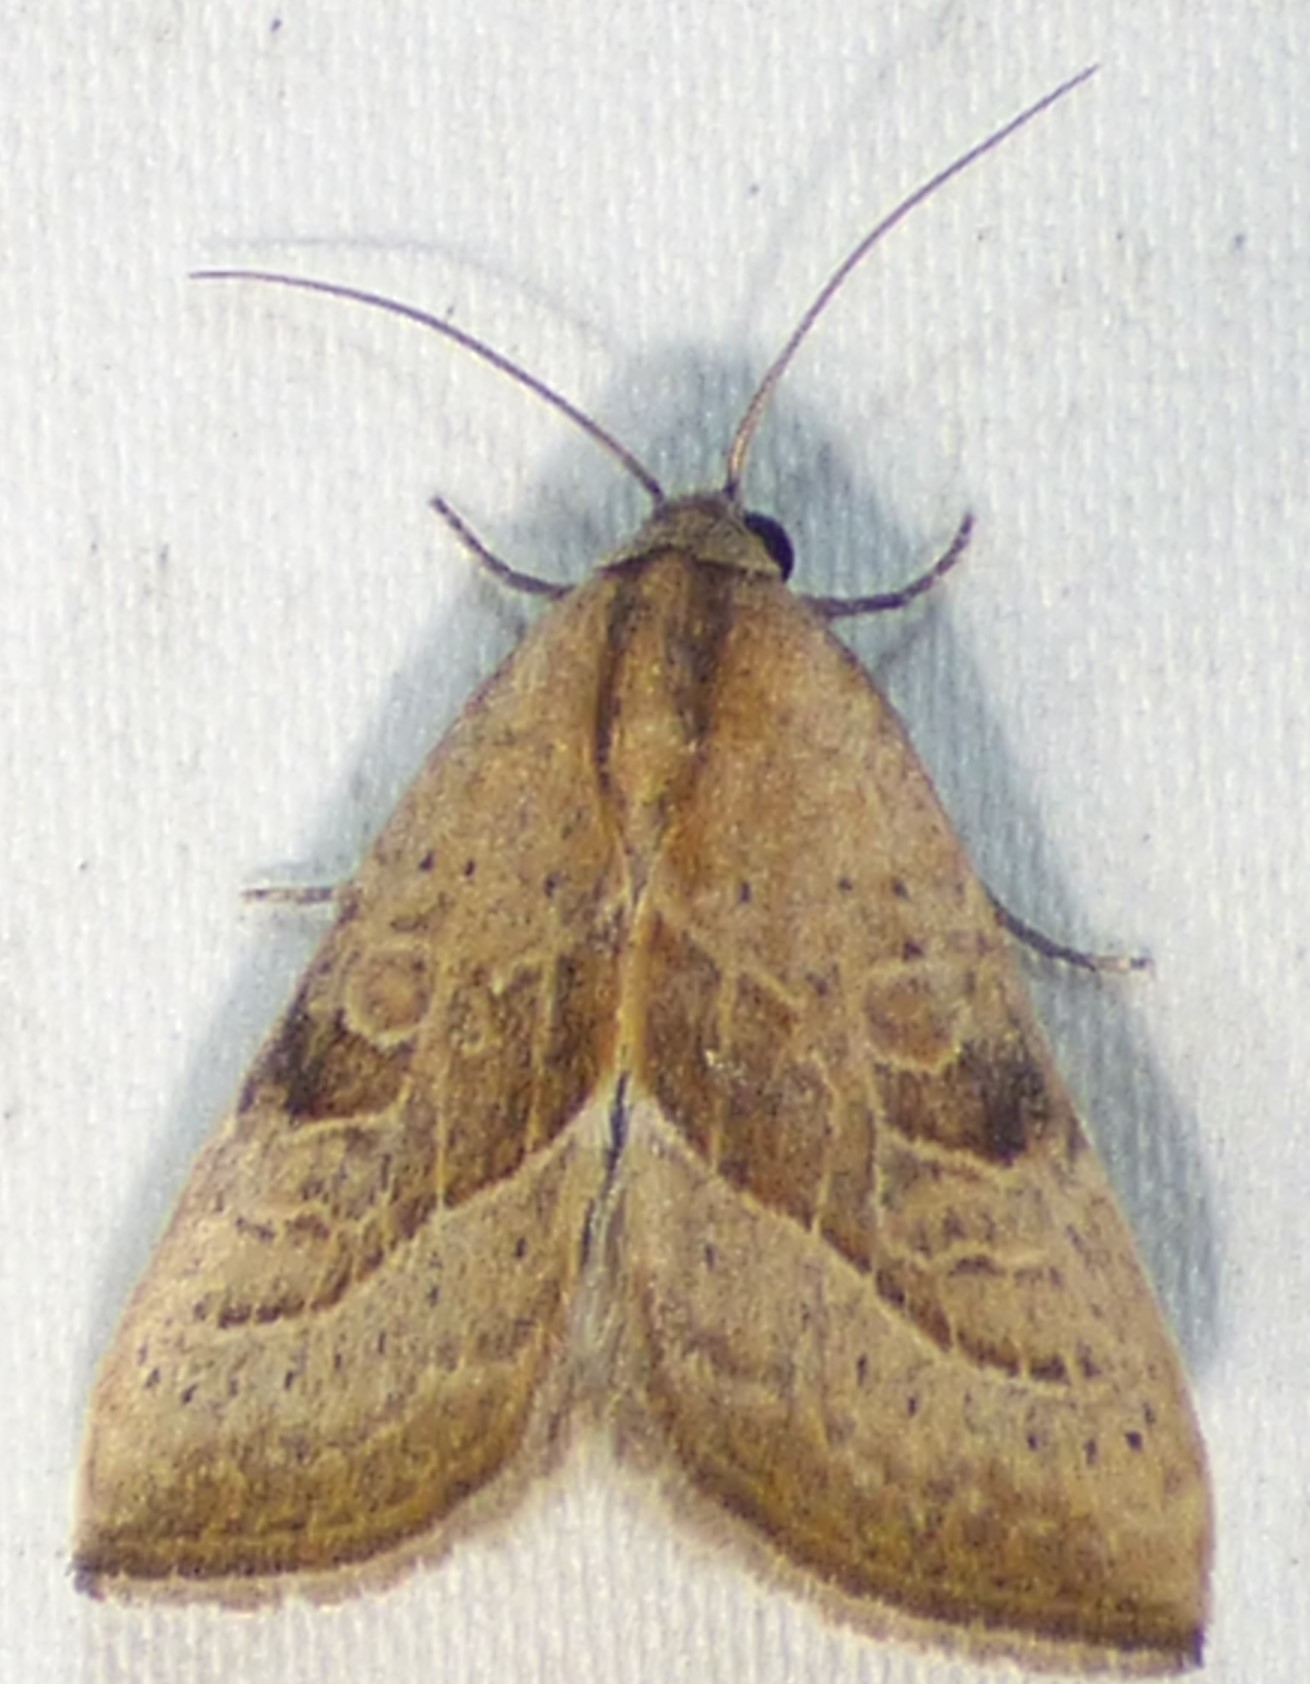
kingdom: Animalia
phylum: Arthropoda
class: Insecta
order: Lepidoptera
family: Noctuidae
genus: Galgula
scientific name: Galgula partita
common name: Wedgeling
